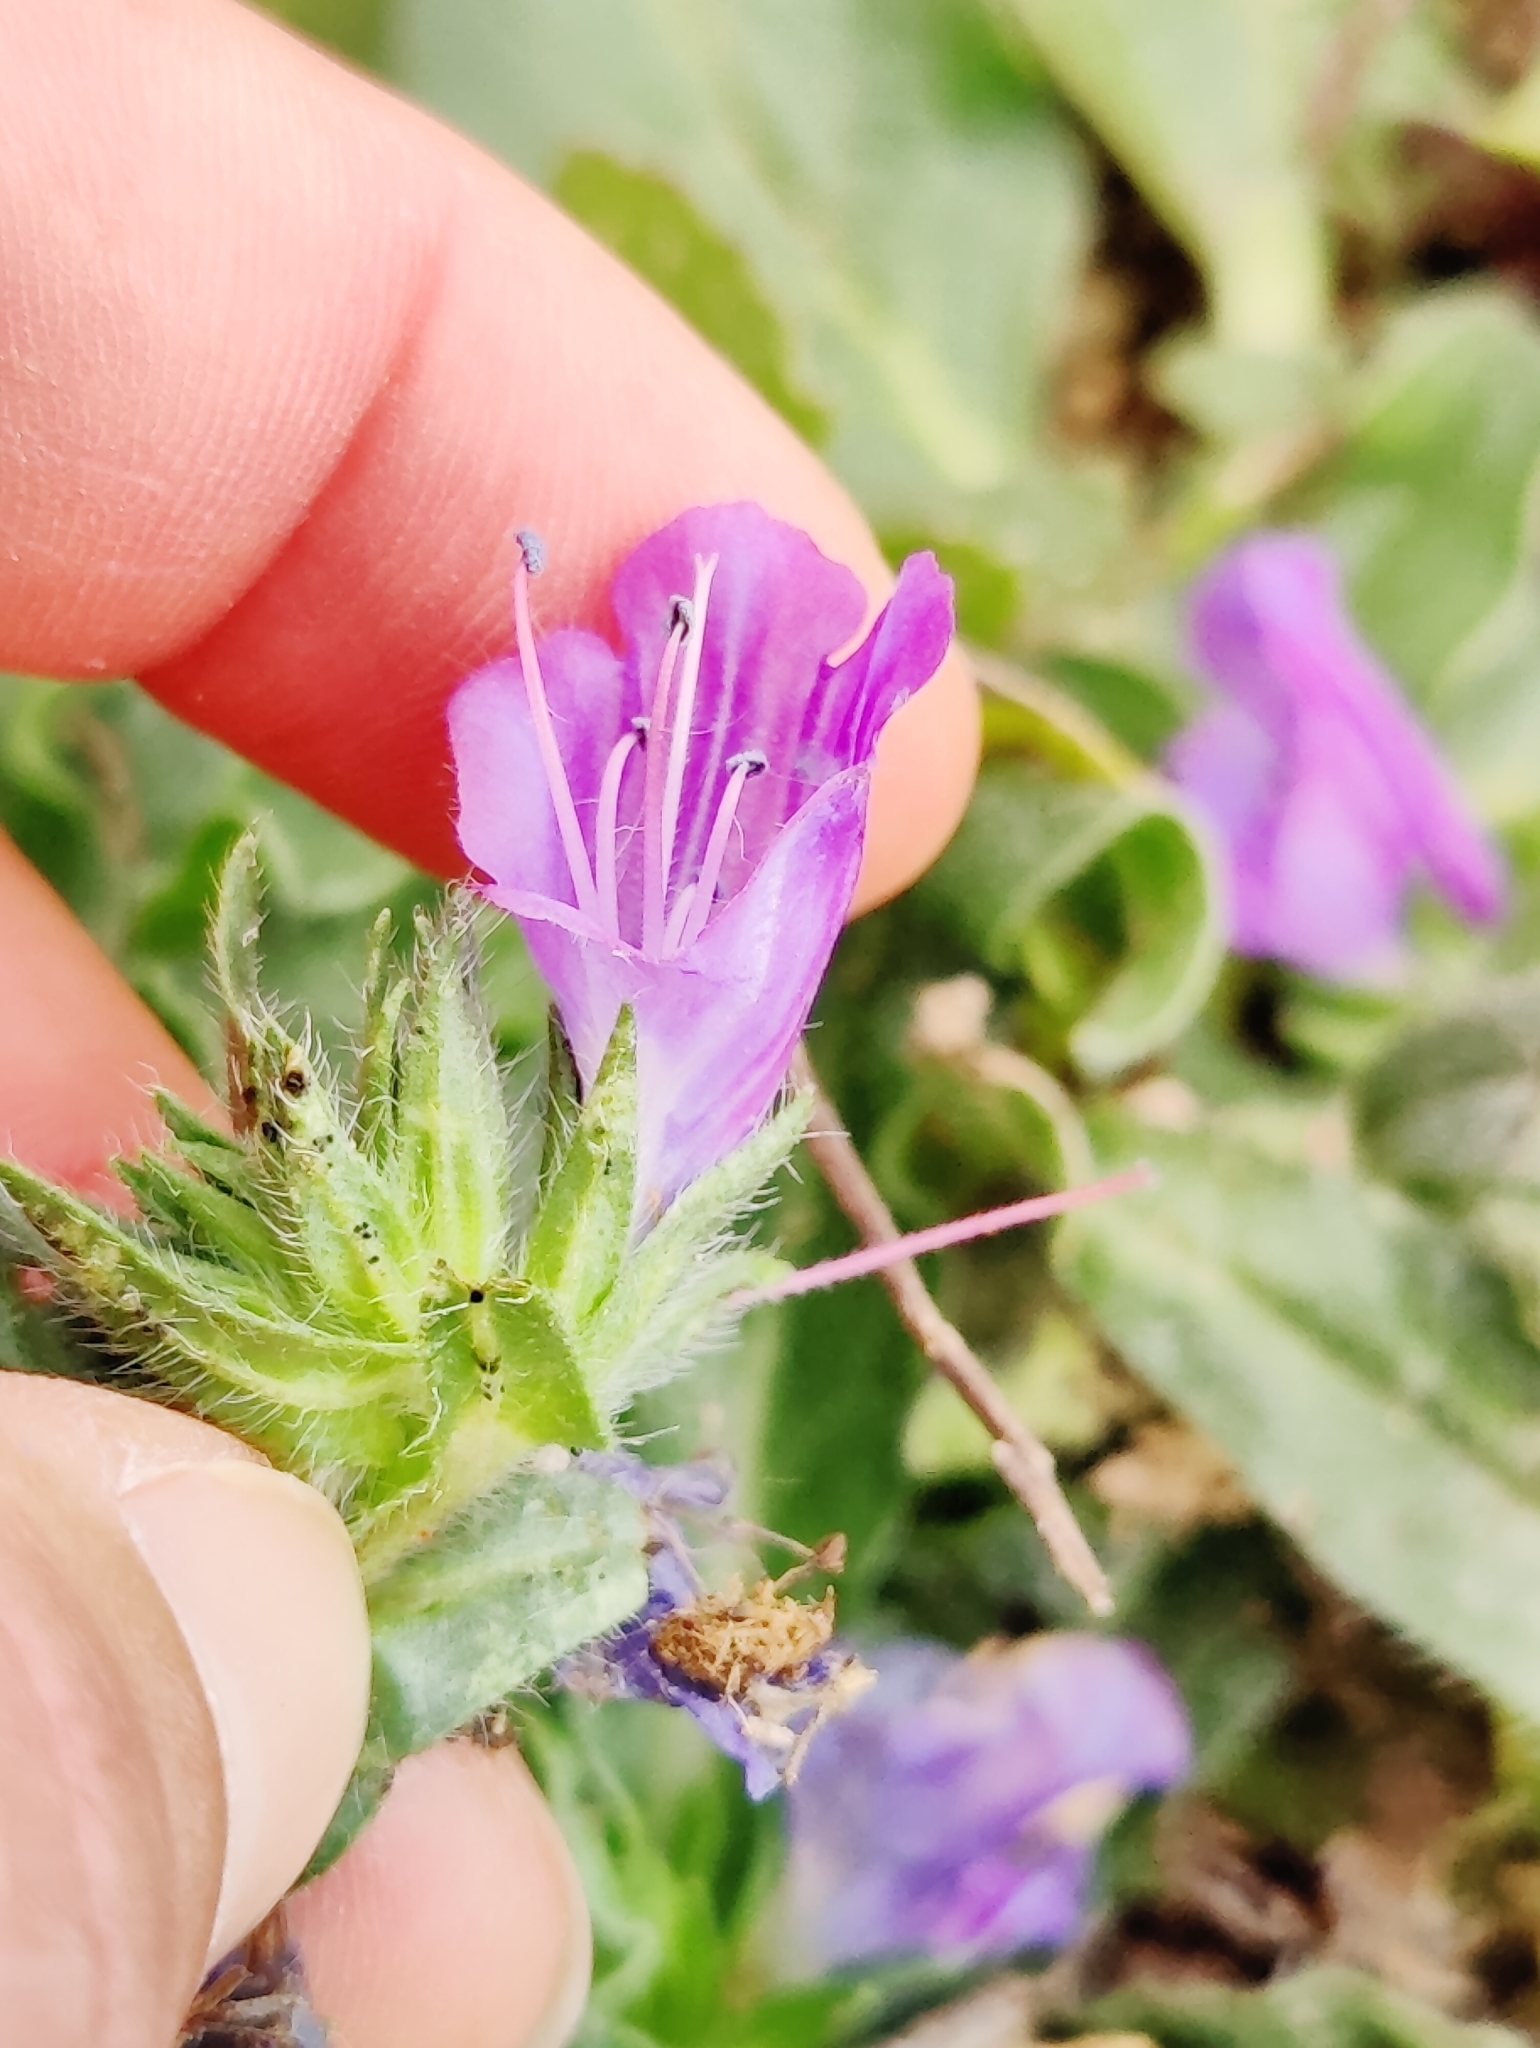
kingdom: Plantae
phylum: Tracheophyta
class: Magnoliopsida
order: Boraginales
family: Boraginaceae
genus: Echium
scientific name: Echium plantagineum
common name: Purple viper's-bugloss
